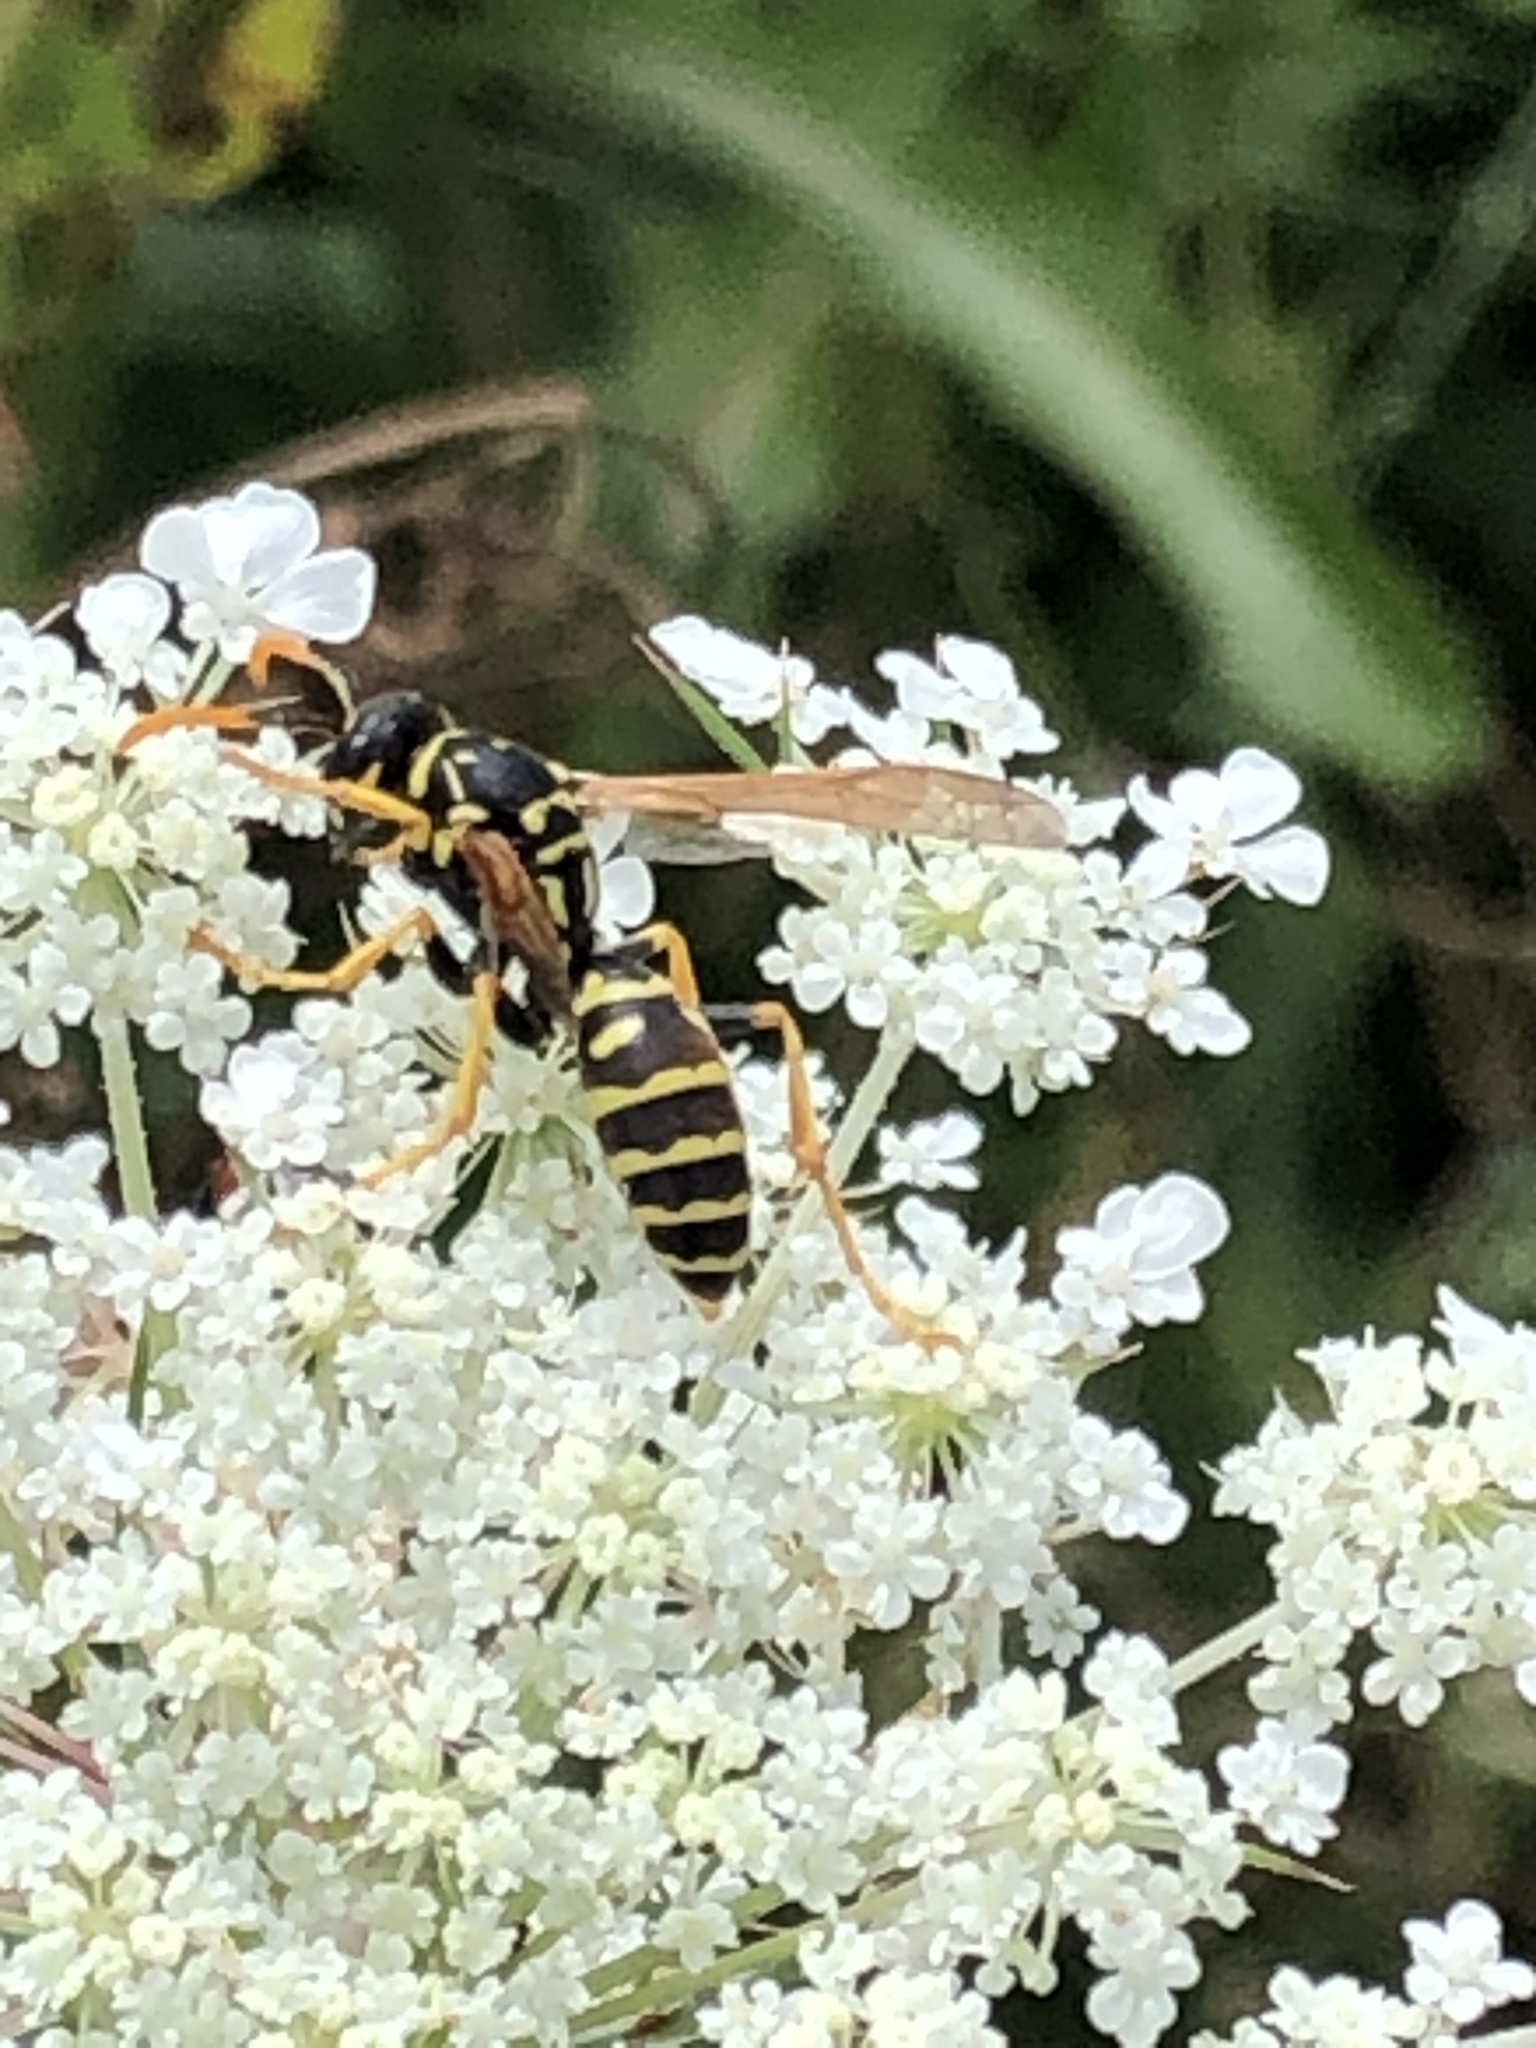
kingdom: Animalia
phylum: Arthropoda
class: Insecta
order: Hymenoptera
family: Eumenidae
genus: Polistes
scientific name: Polistes dominula
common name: Paper wasp
